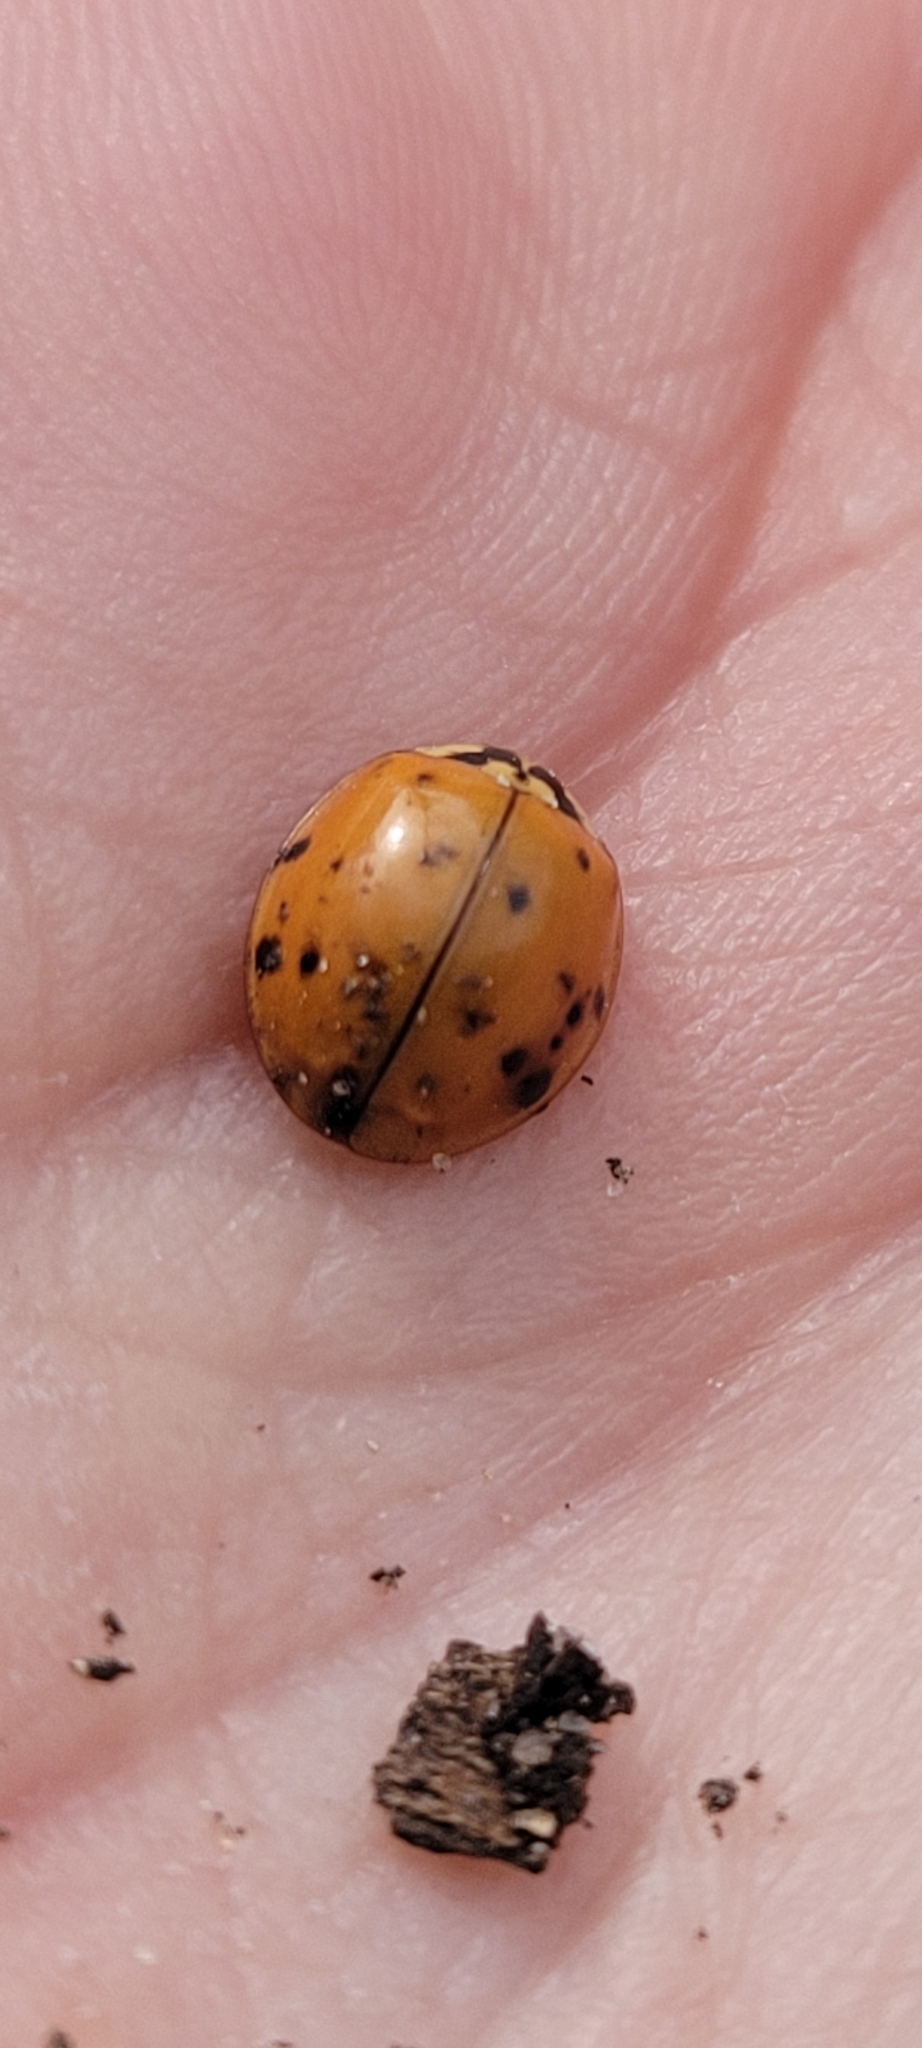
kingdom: Animalia
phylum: Arthropoda
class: Insecta
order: Coleoptera
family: Coccinellidae
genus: Harmonia
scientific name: Harmonia axyridis
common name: Harlequin ladybird
